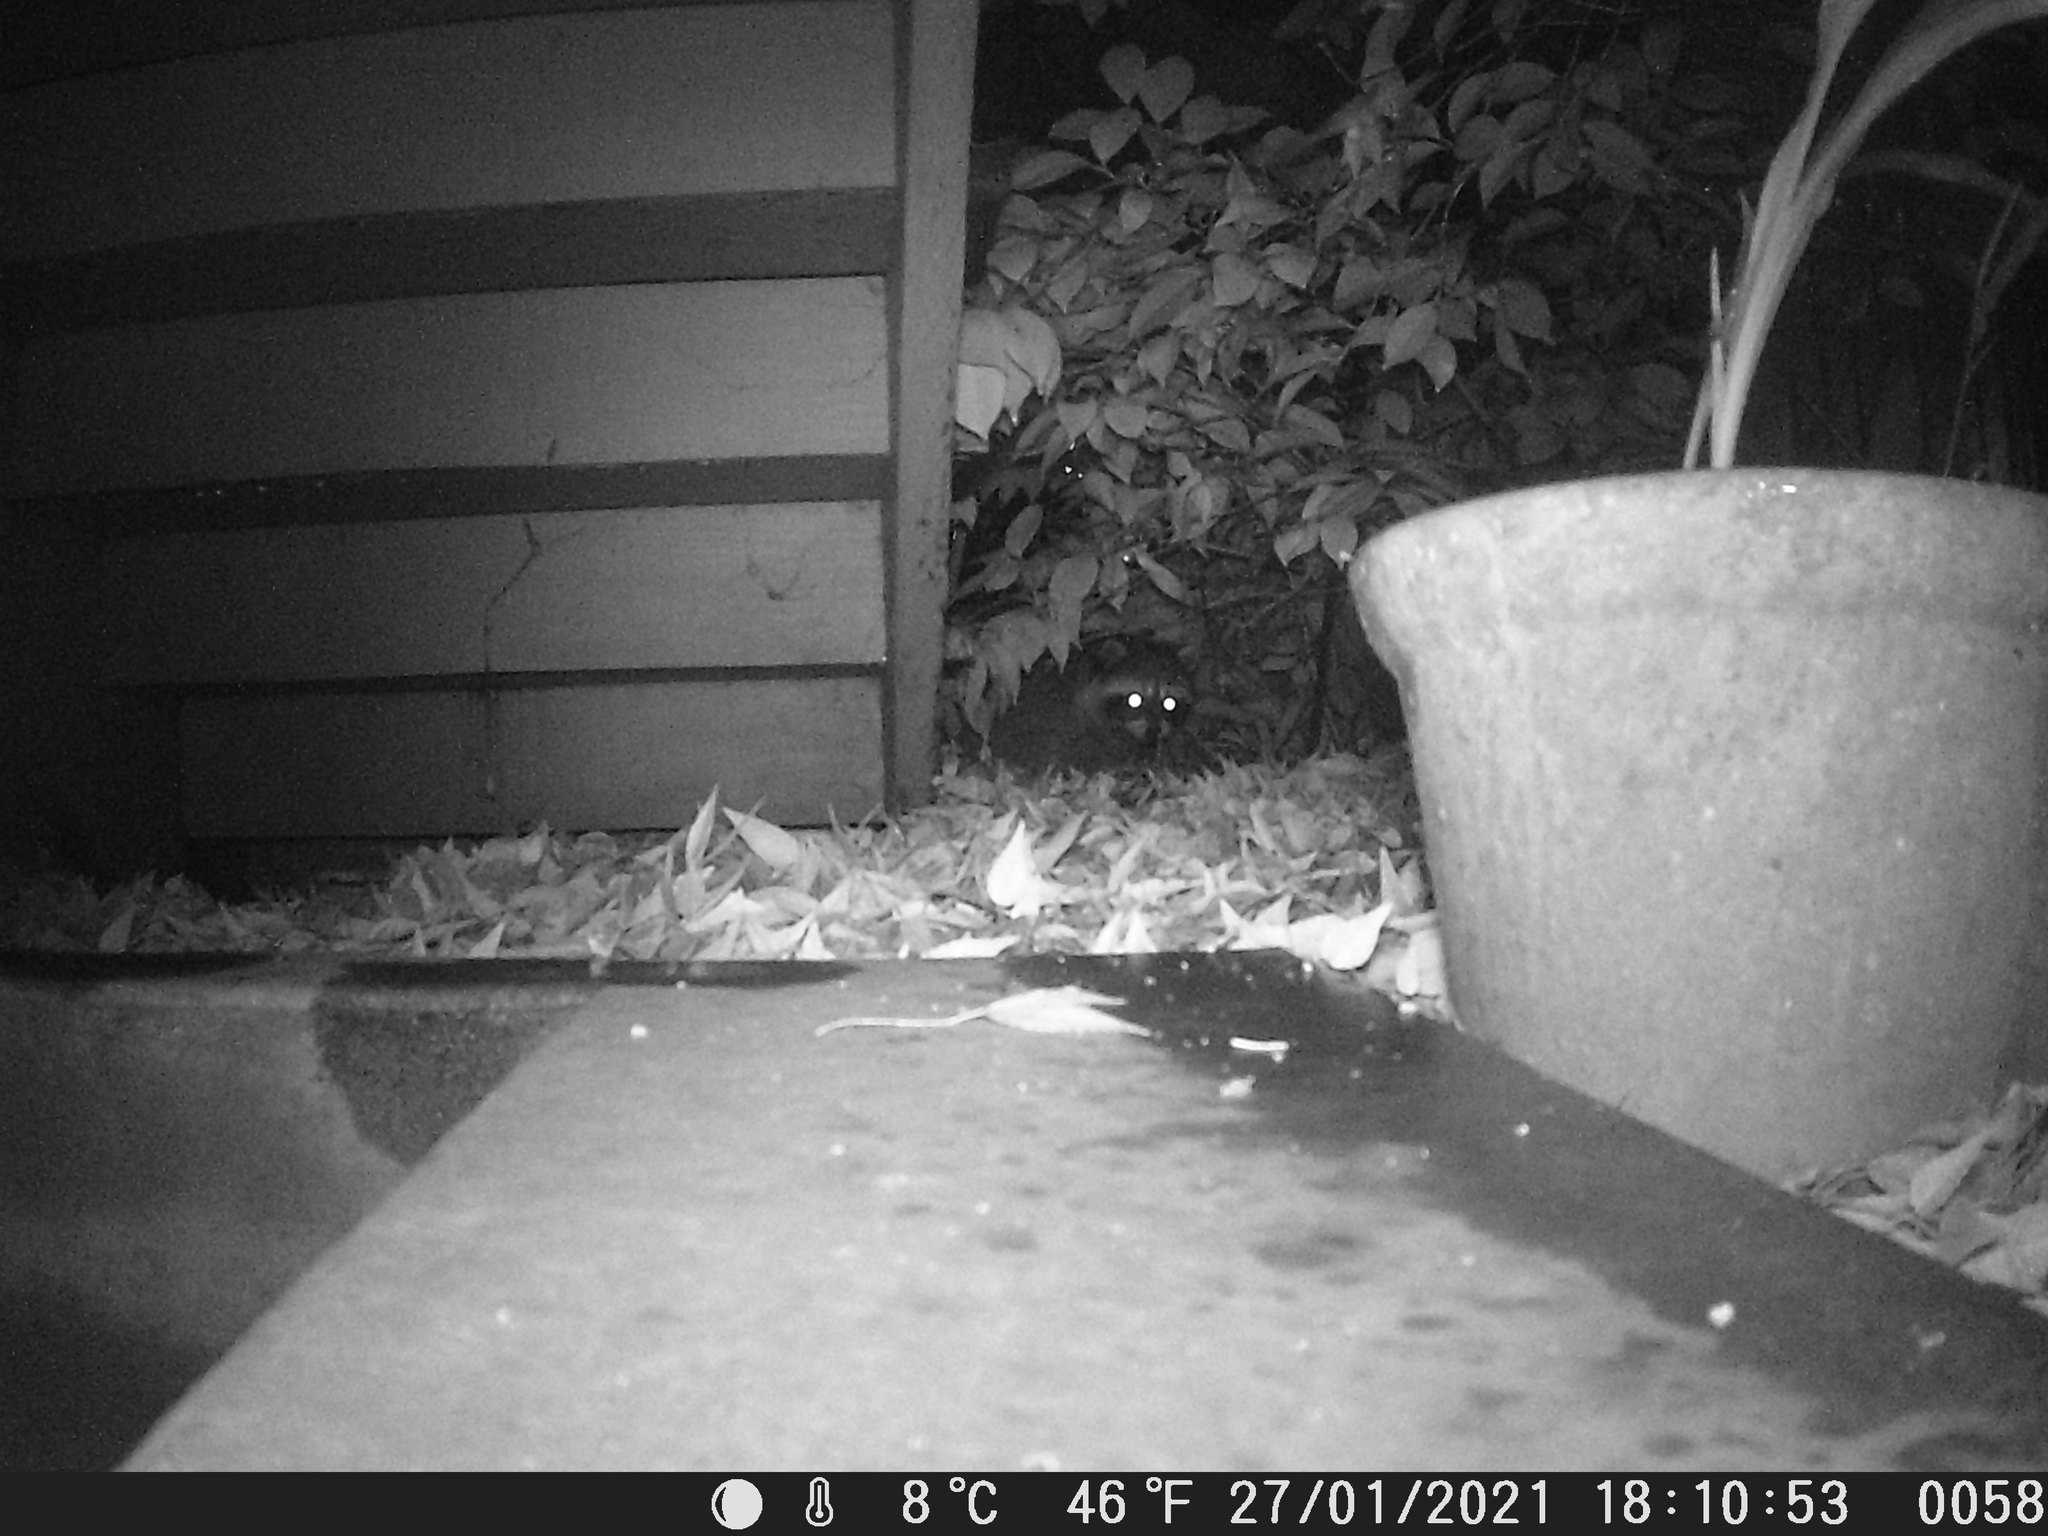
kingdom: Animalia
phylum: Chordata
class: Mammalia
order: Carnivora
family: Procyonidae
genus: Procyon
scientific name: Procyon lotor
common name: Raccoon
